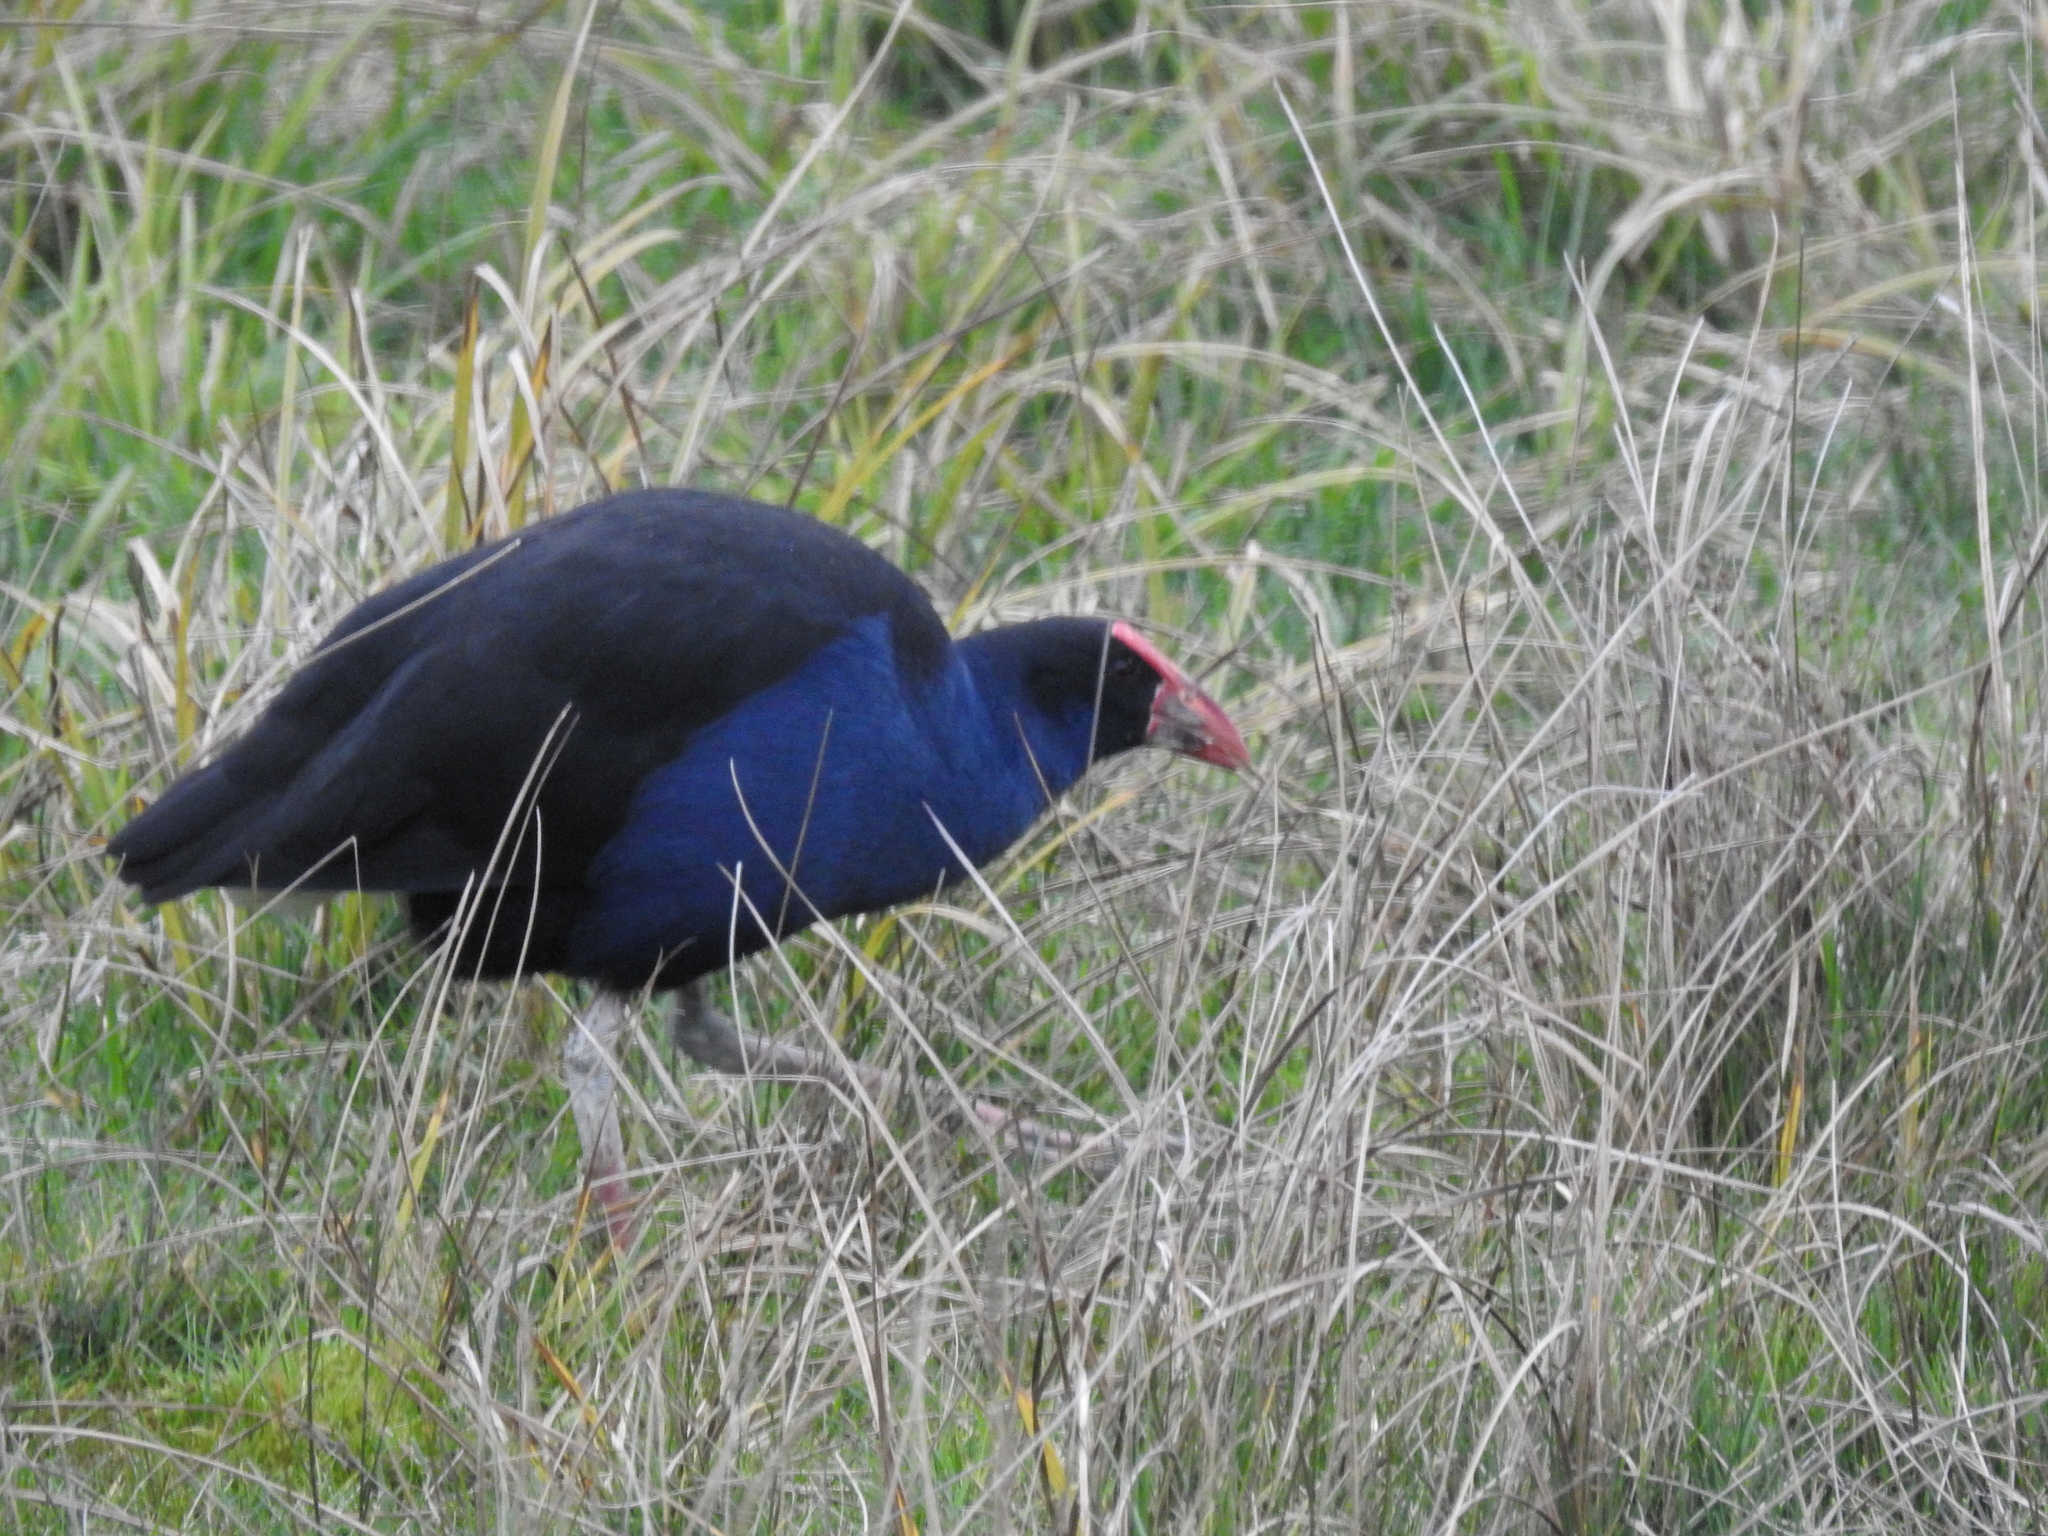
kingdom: Animalia
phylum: Chordata
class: Aves
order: Gruiformes
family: Rallidae
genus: Porphyrio
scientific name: Porphyrio melanotus
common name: Australasian swamphen
